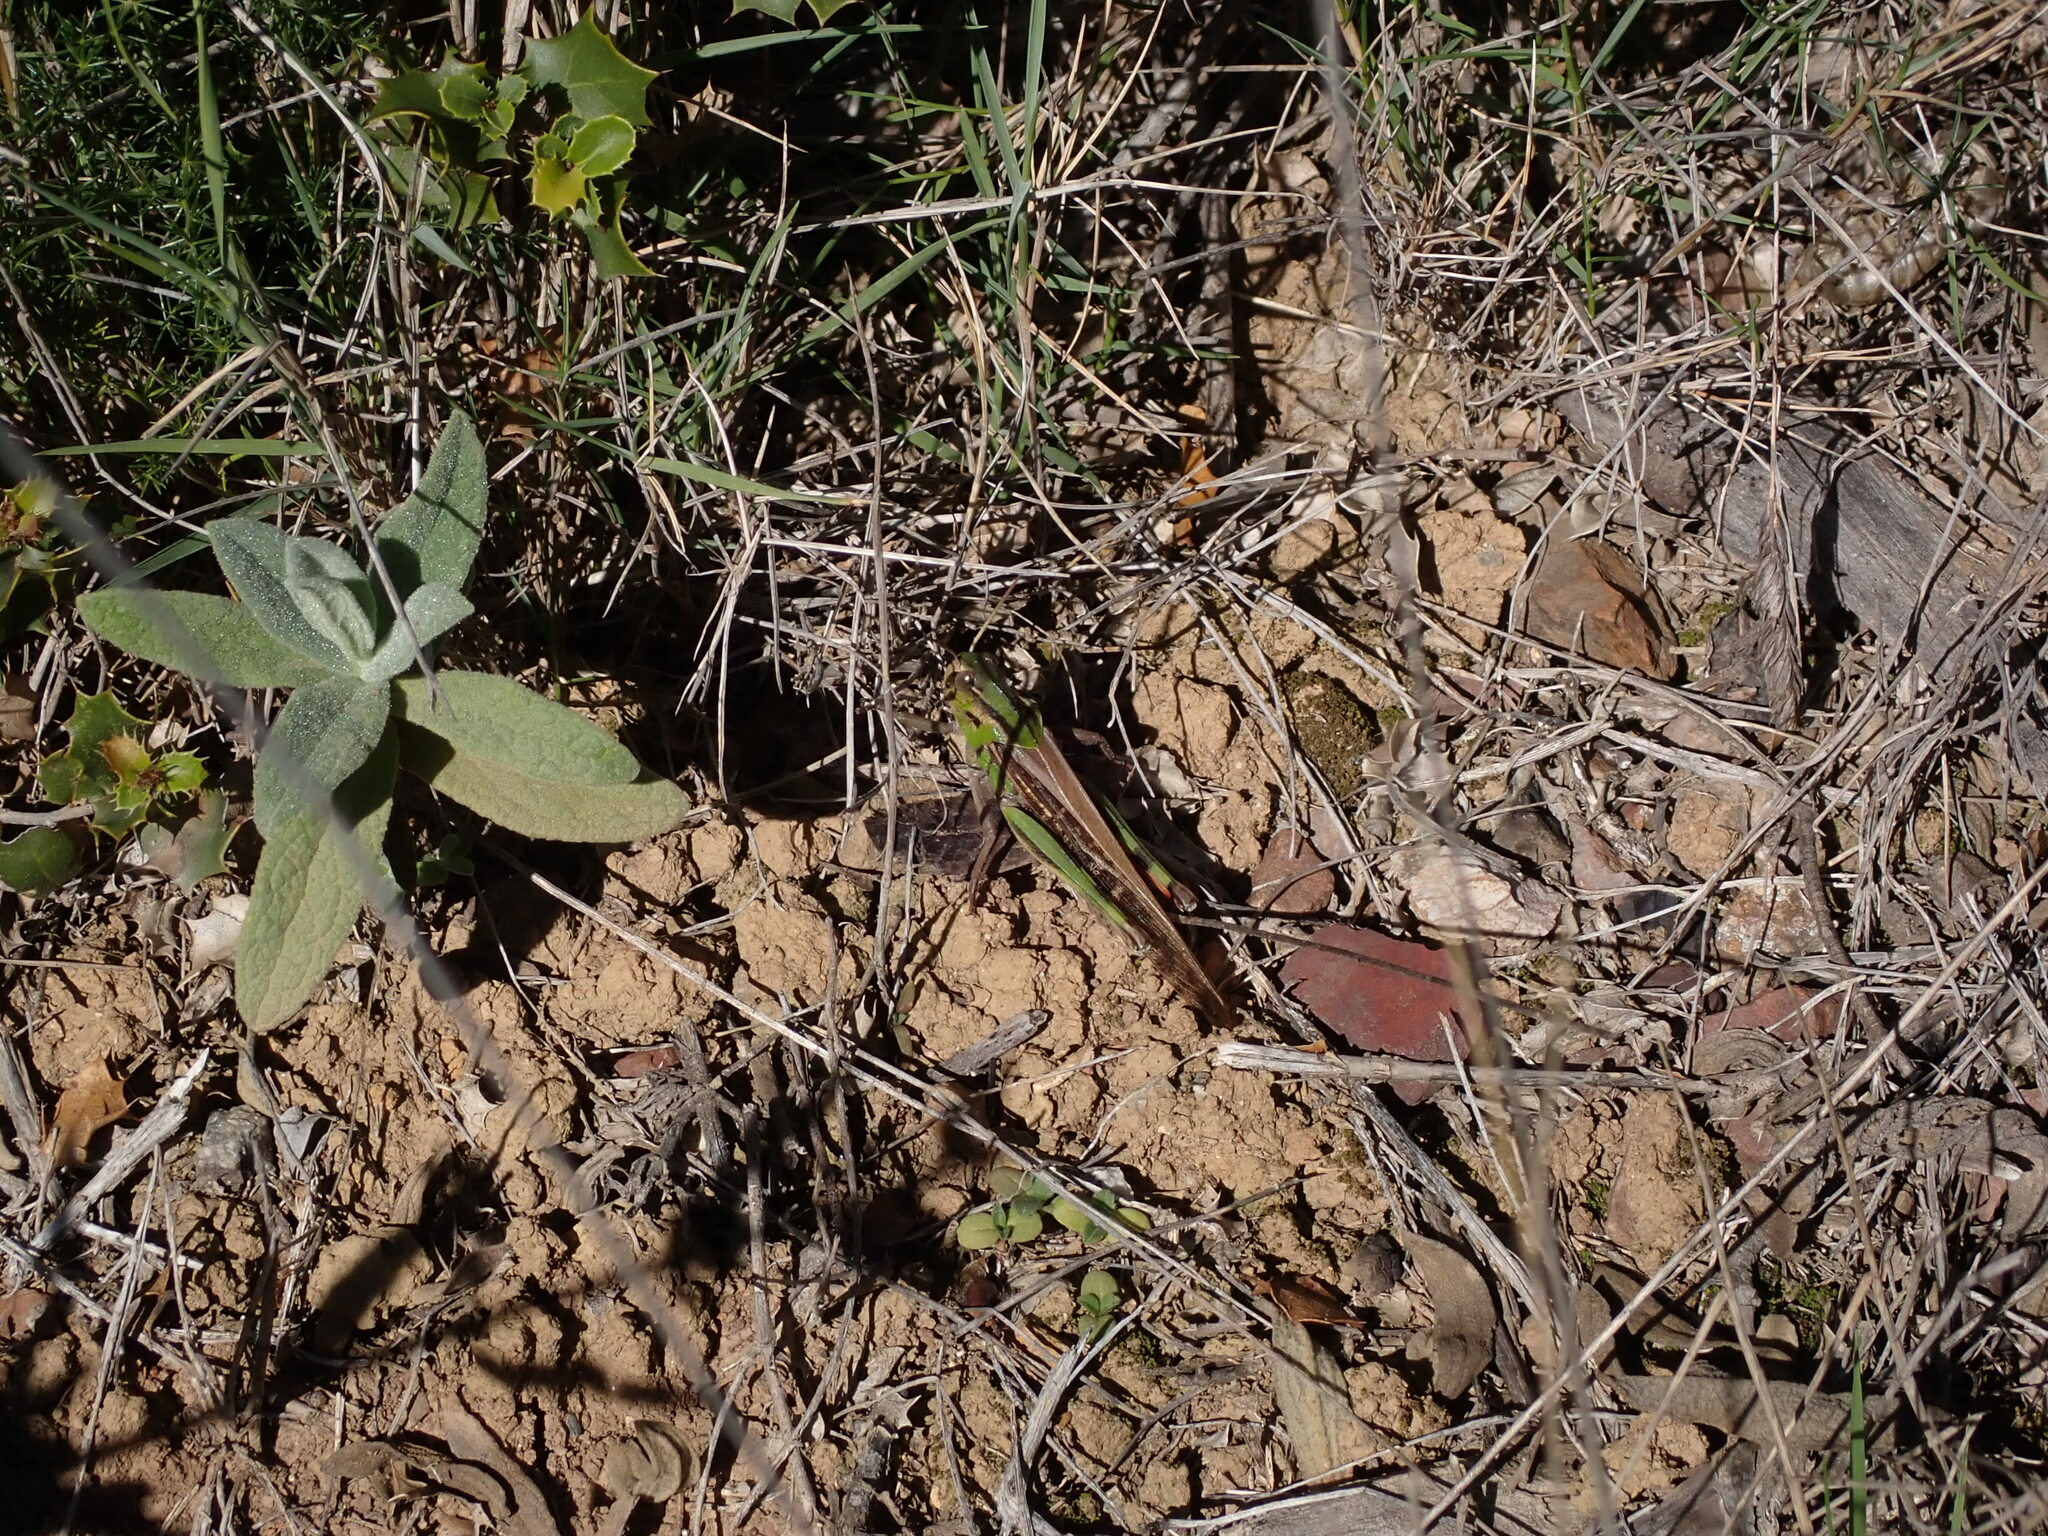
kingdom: Animalia
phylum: Arthropoda
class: Insecta
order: Orthoptera
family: Acrididae
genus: Locusta
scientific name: Locusta migratoria
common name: Migratory locust
